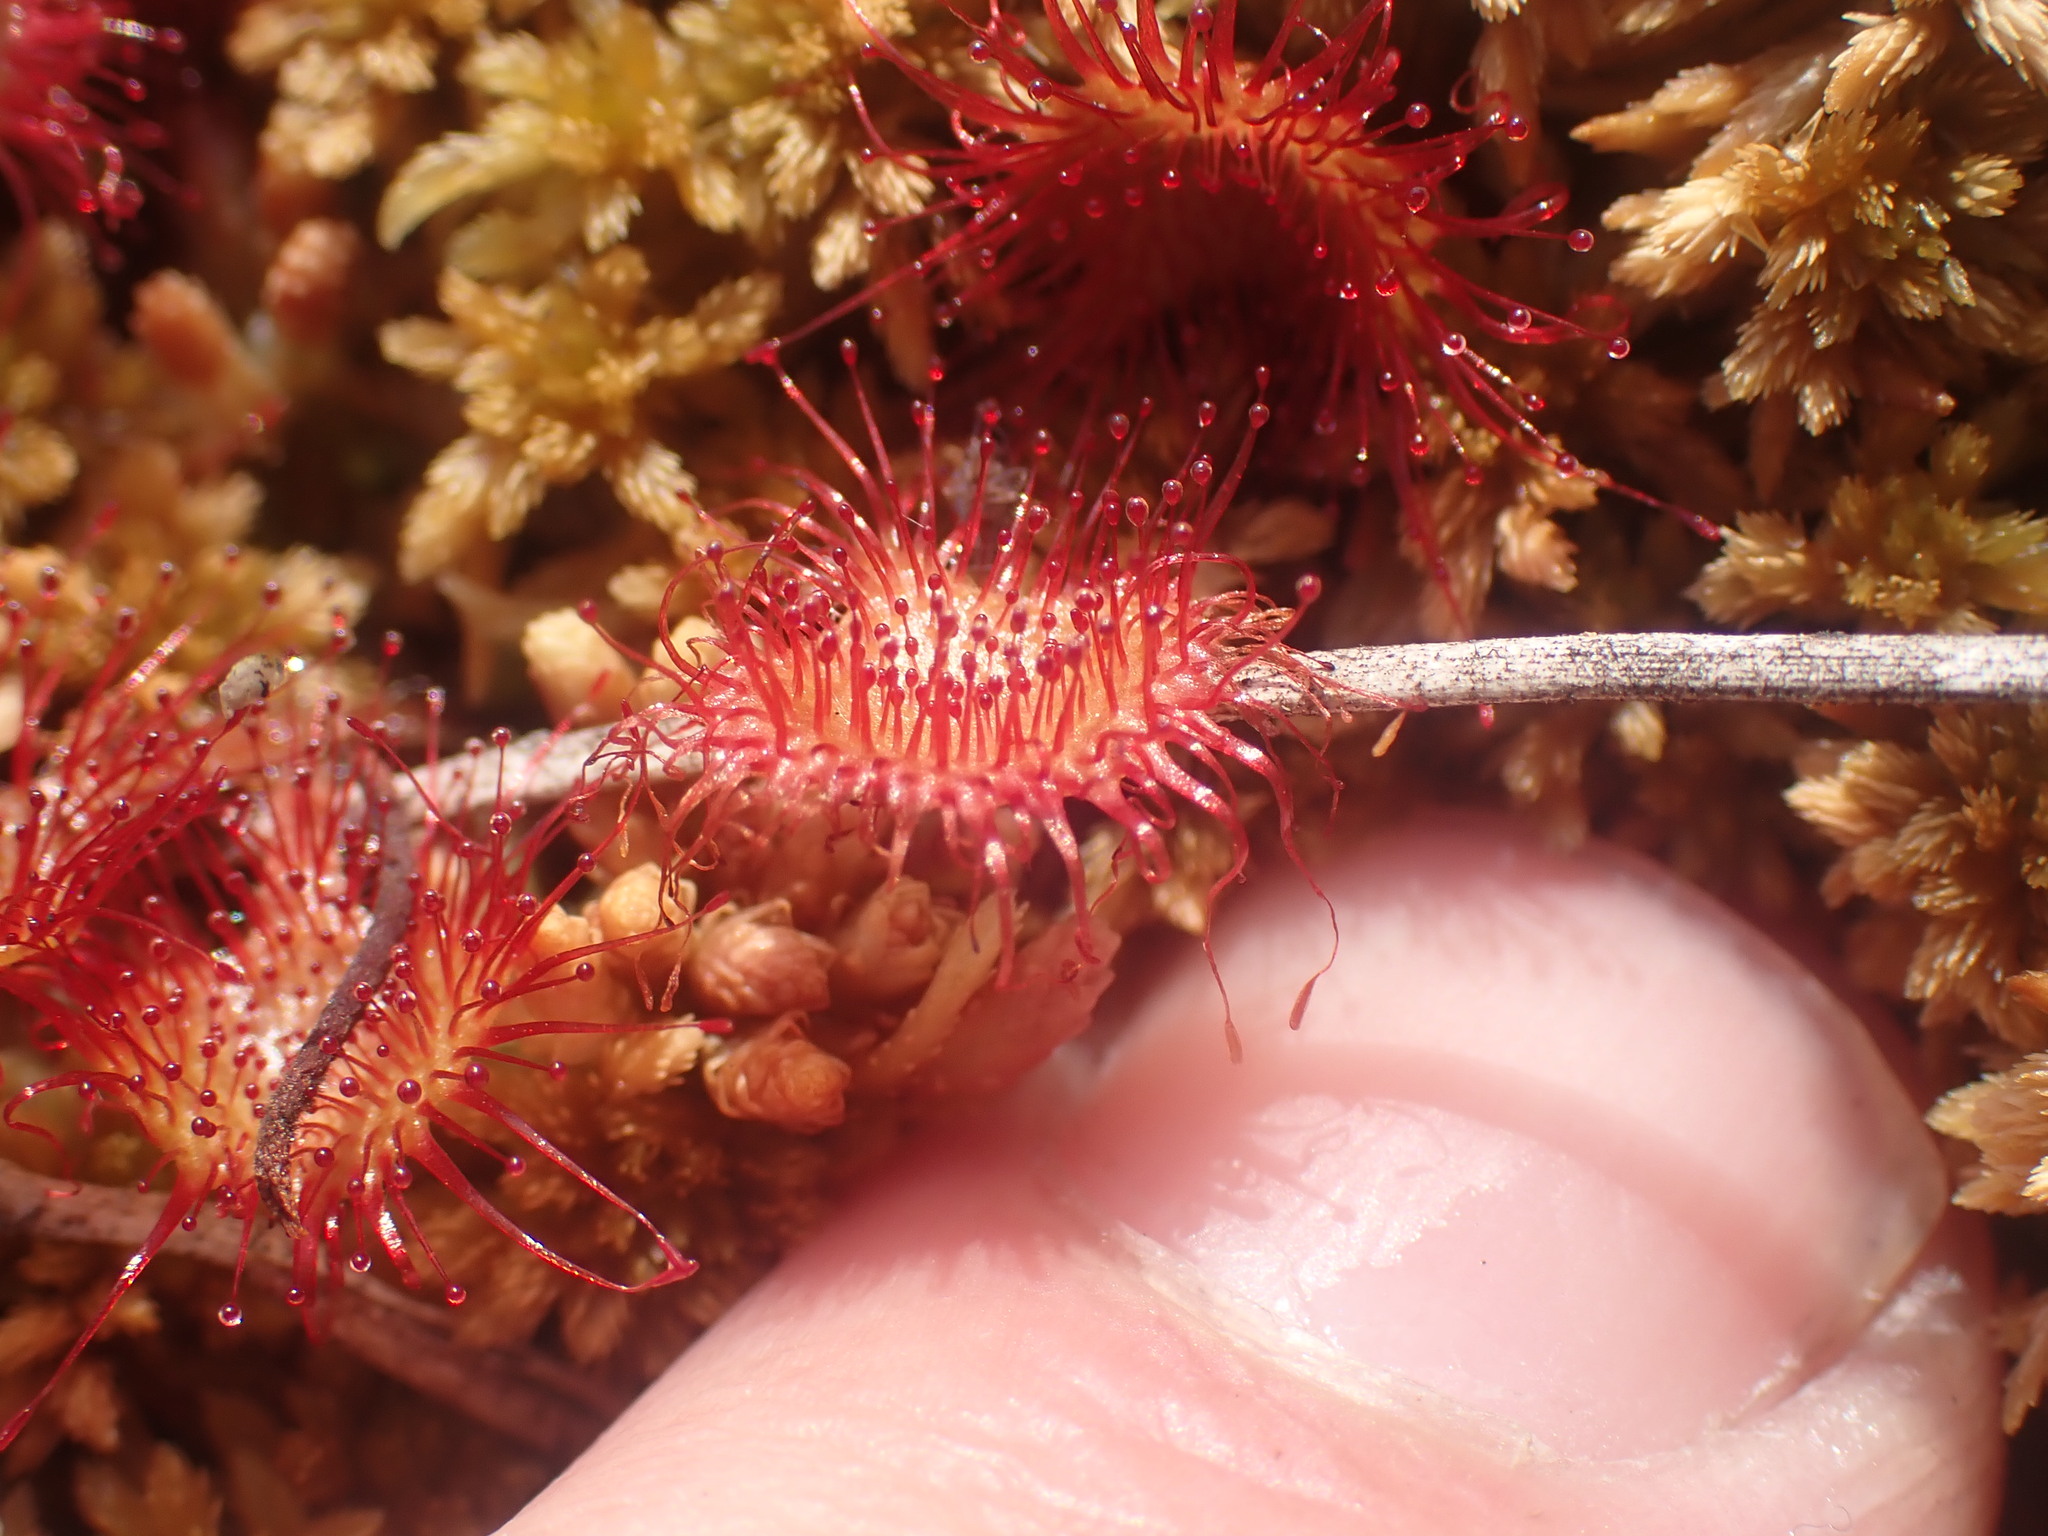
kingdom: Plantae
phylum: Tracheophyta
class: Magnoliopsida
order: Caryophyllales
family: Droseraceae
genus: Drosera
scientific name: Drosera rotundifolia
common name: Round-leaved sundew
